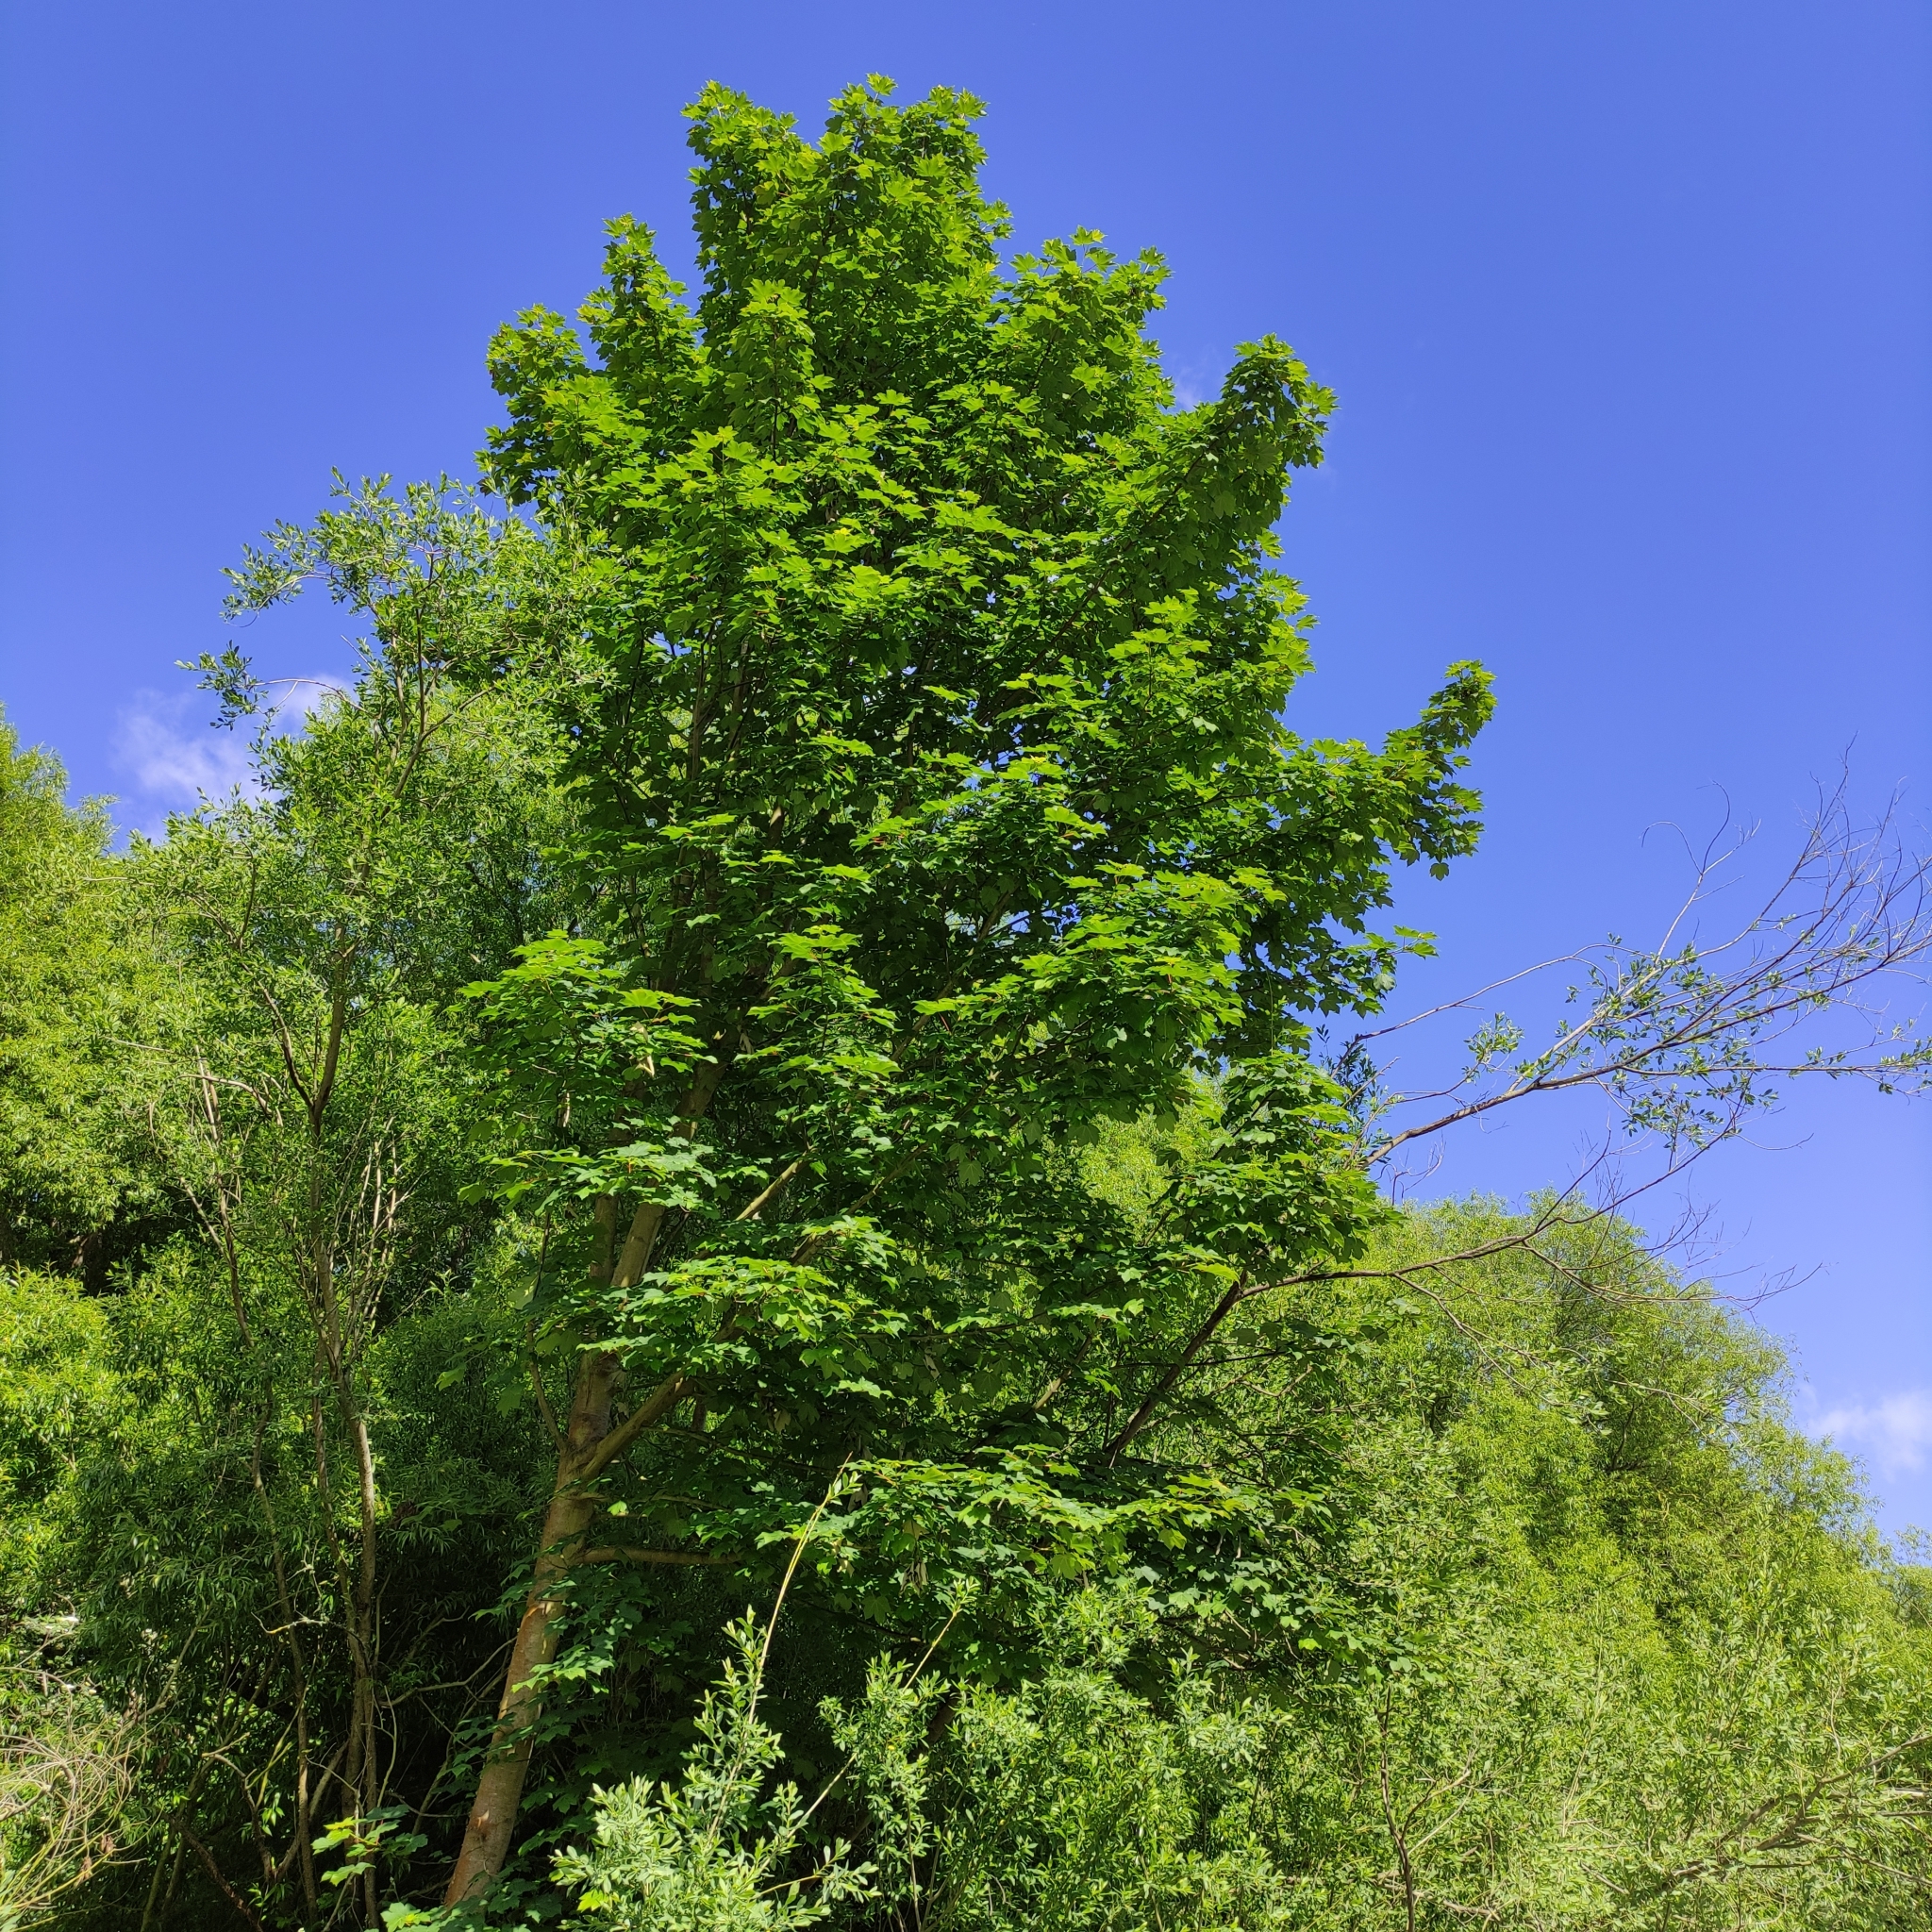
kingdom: Plantae
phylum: Tracheophyta
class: Magnoliopsida
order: Sapindales
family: Sapindaceae
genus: Acer
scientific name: Acer pseudoplatanus
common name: Sycamore
